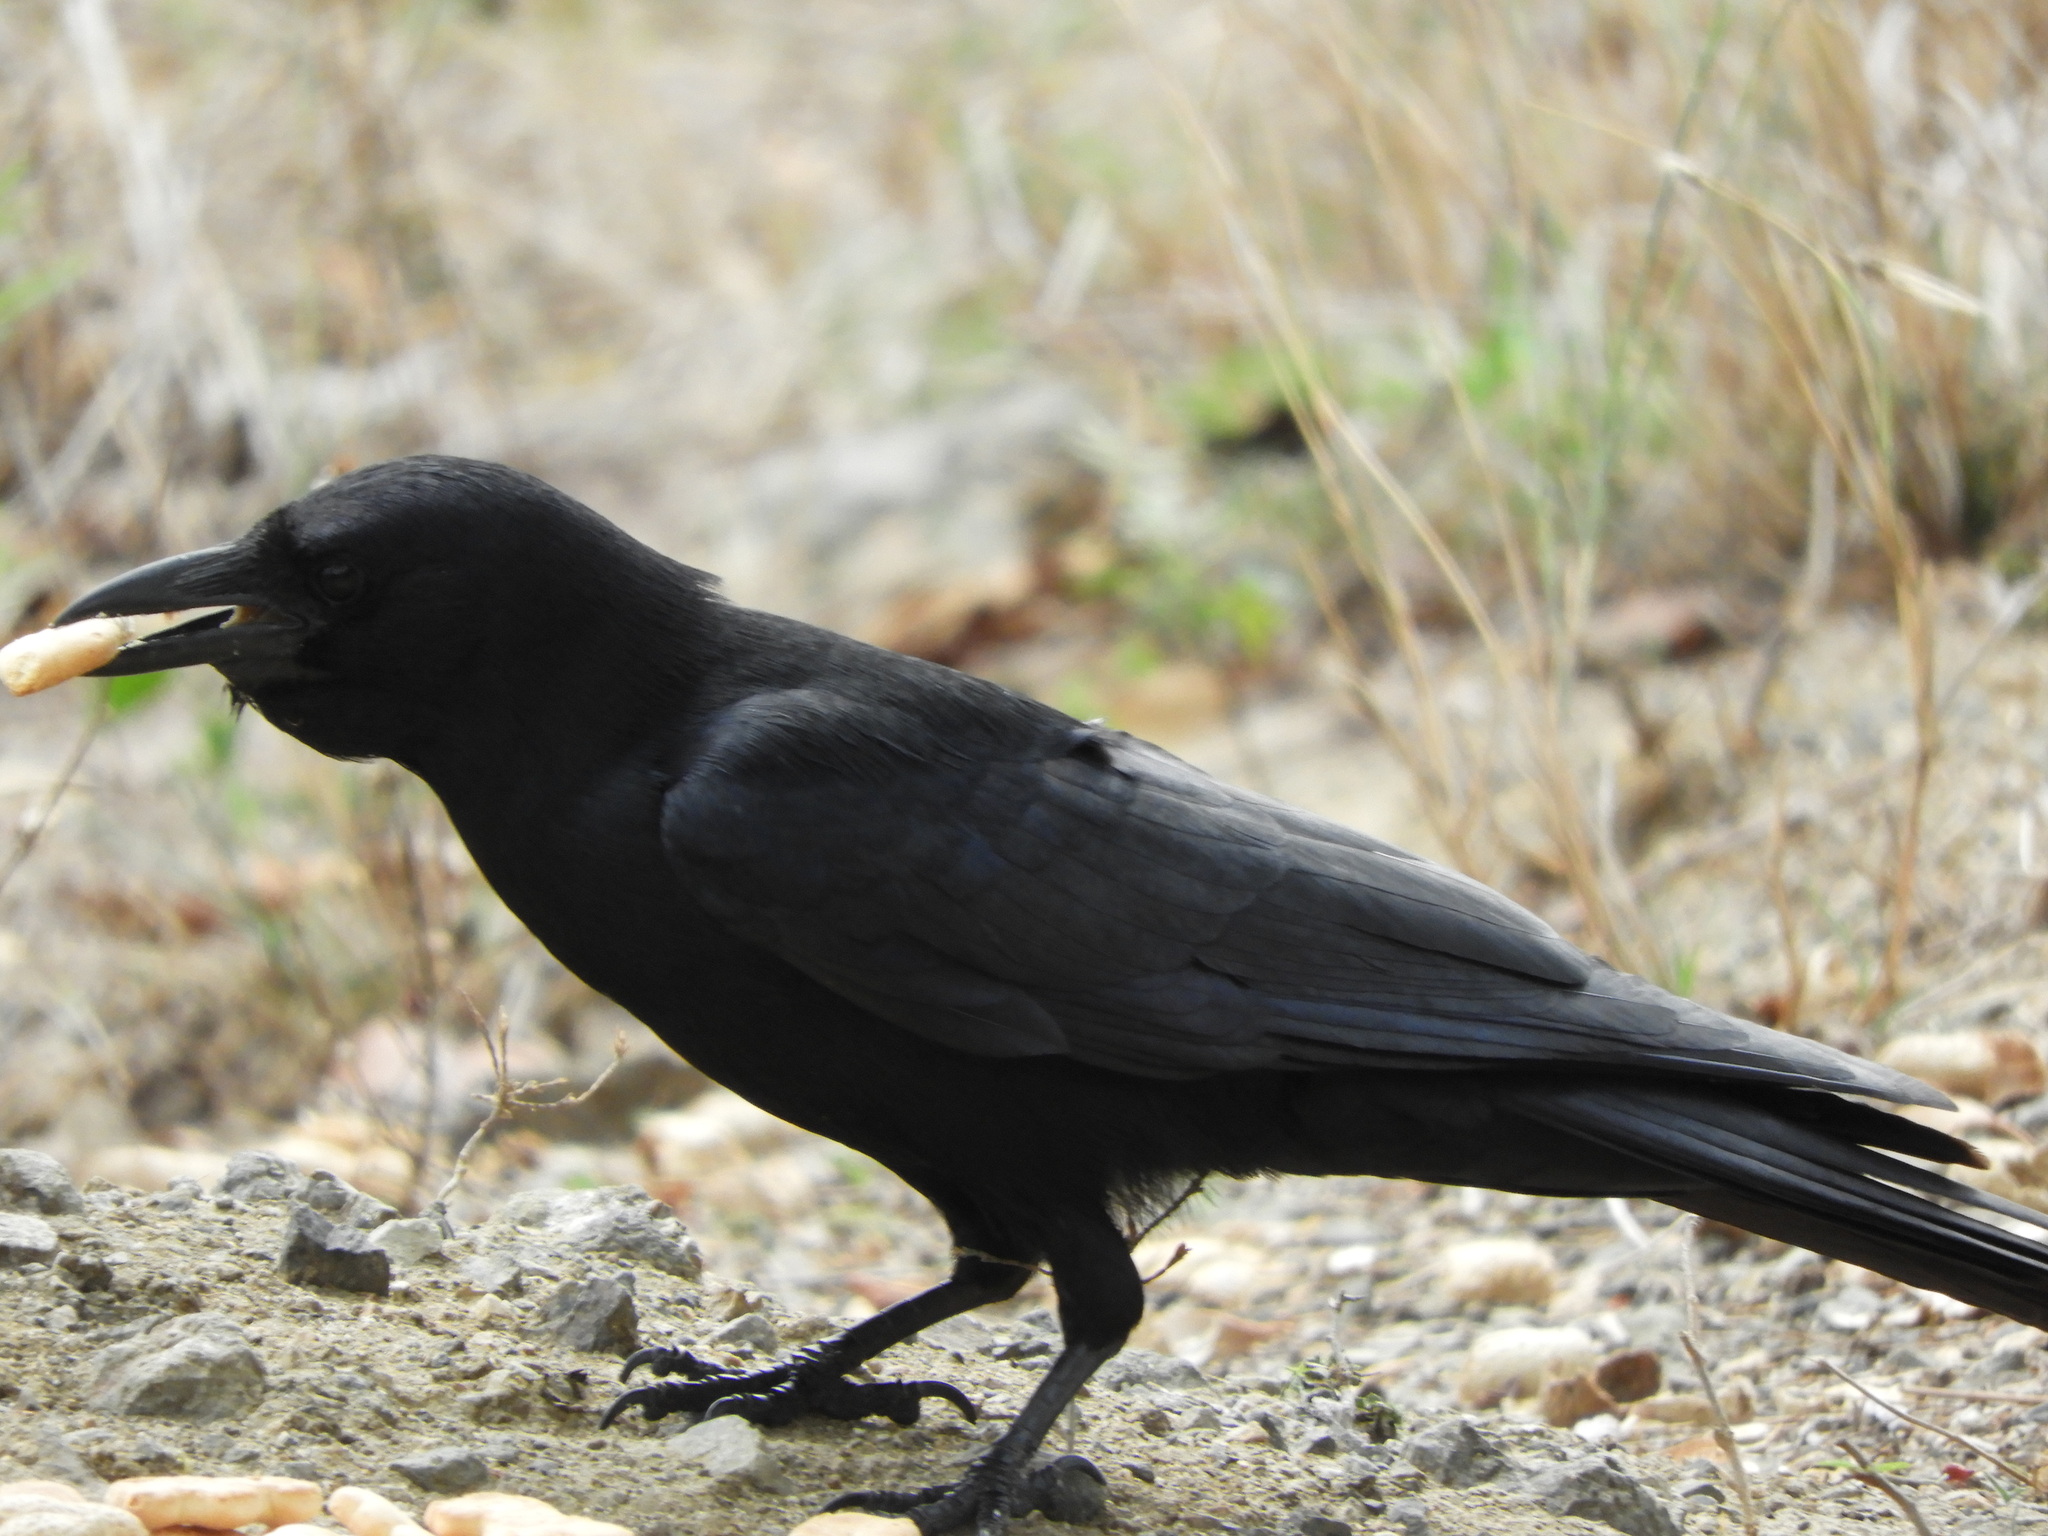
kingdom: Animalia
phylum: Chordata
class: Aves
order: Passeriformes
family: Corvidae
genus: Corvus
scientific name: Corvus sinaloae
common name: Sinaloa crow
